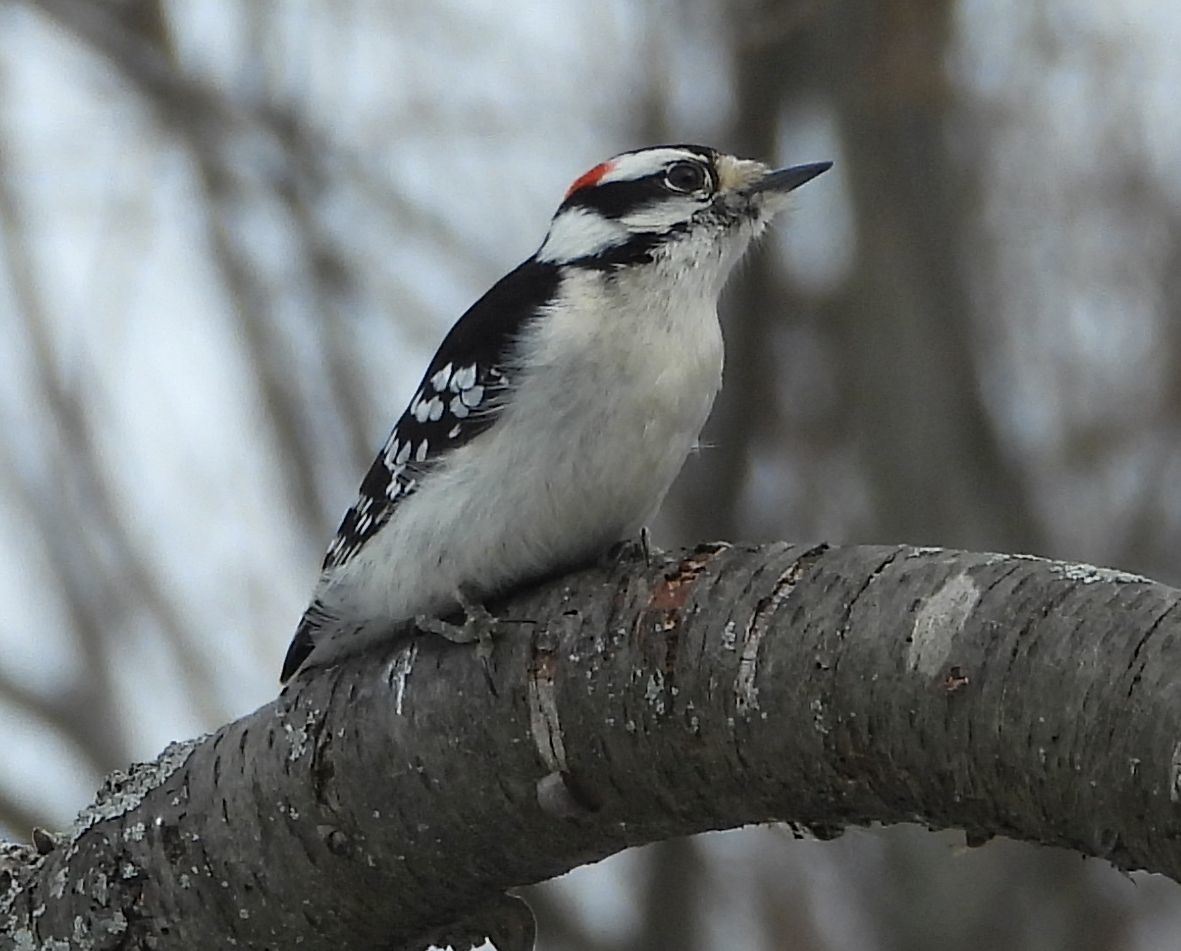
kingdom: Animalia
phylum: Chordata
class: Aves
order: Piciformes
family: Picidae
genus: Dryobates
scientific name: Dryobates pubescens
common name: Downy woodpecker
